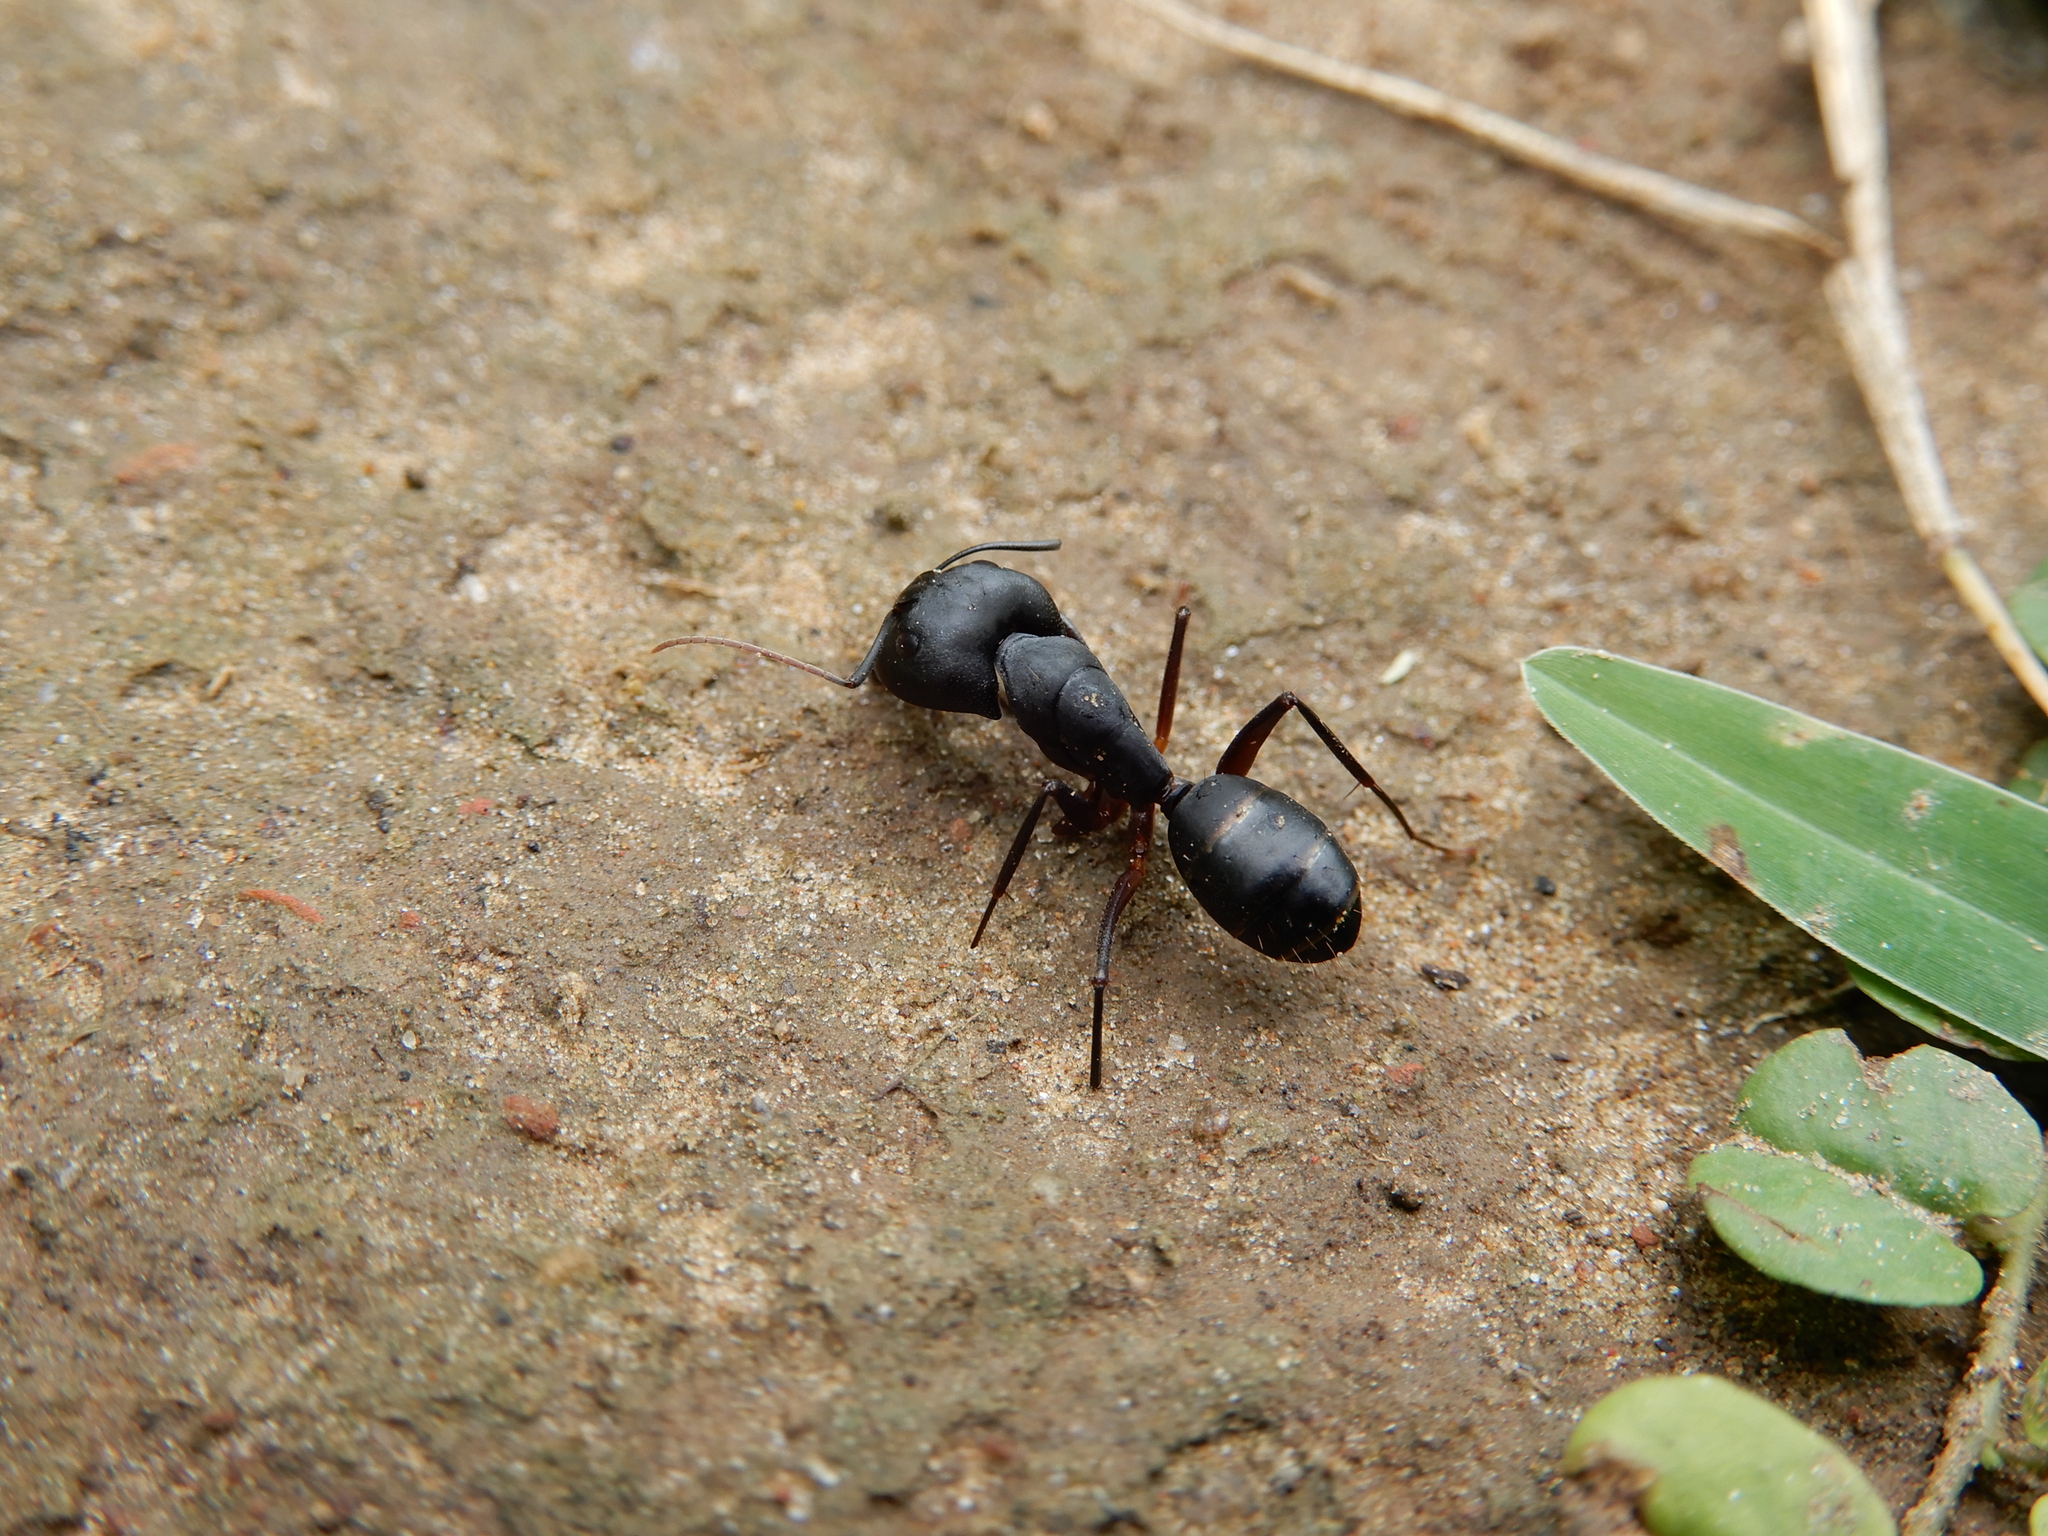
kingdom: Animalia
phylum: Arthropoda
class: Insecta
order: Hymenoptera
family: Formicidae
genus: Camponotus
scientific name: Camponotus compressus
